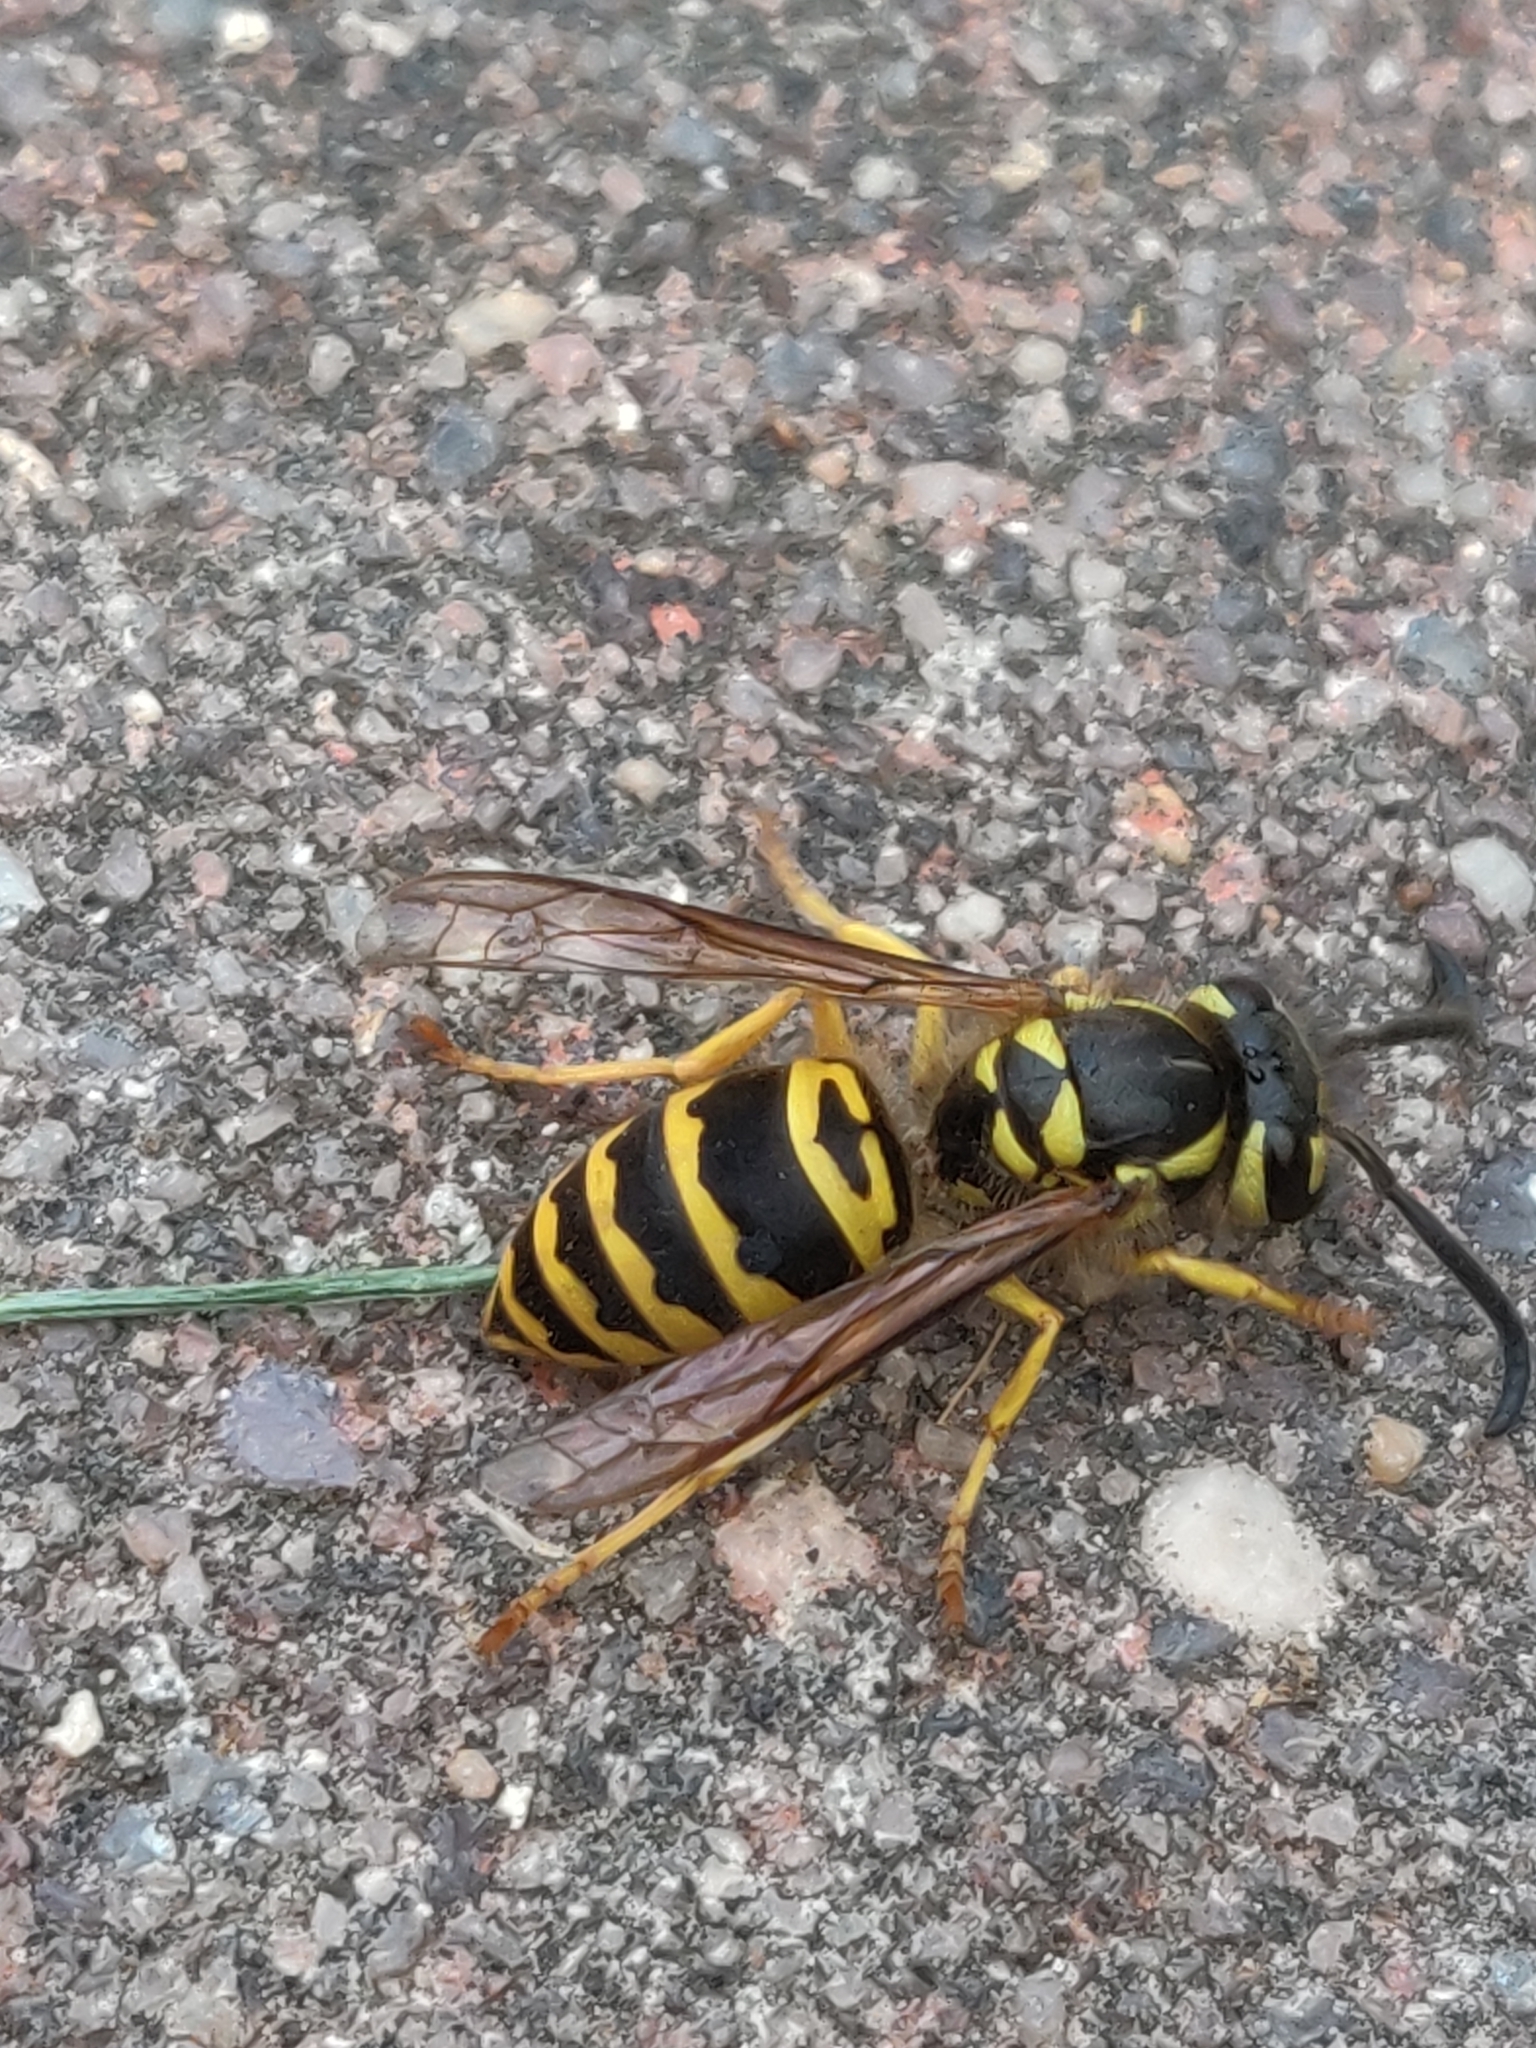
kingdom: Animalia
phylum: Arthropoda
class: Insecta
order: Hymenoptera
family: Vespidae
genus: Vespula
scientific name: Vespula maculifrons
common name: Eastern yellowjacket
